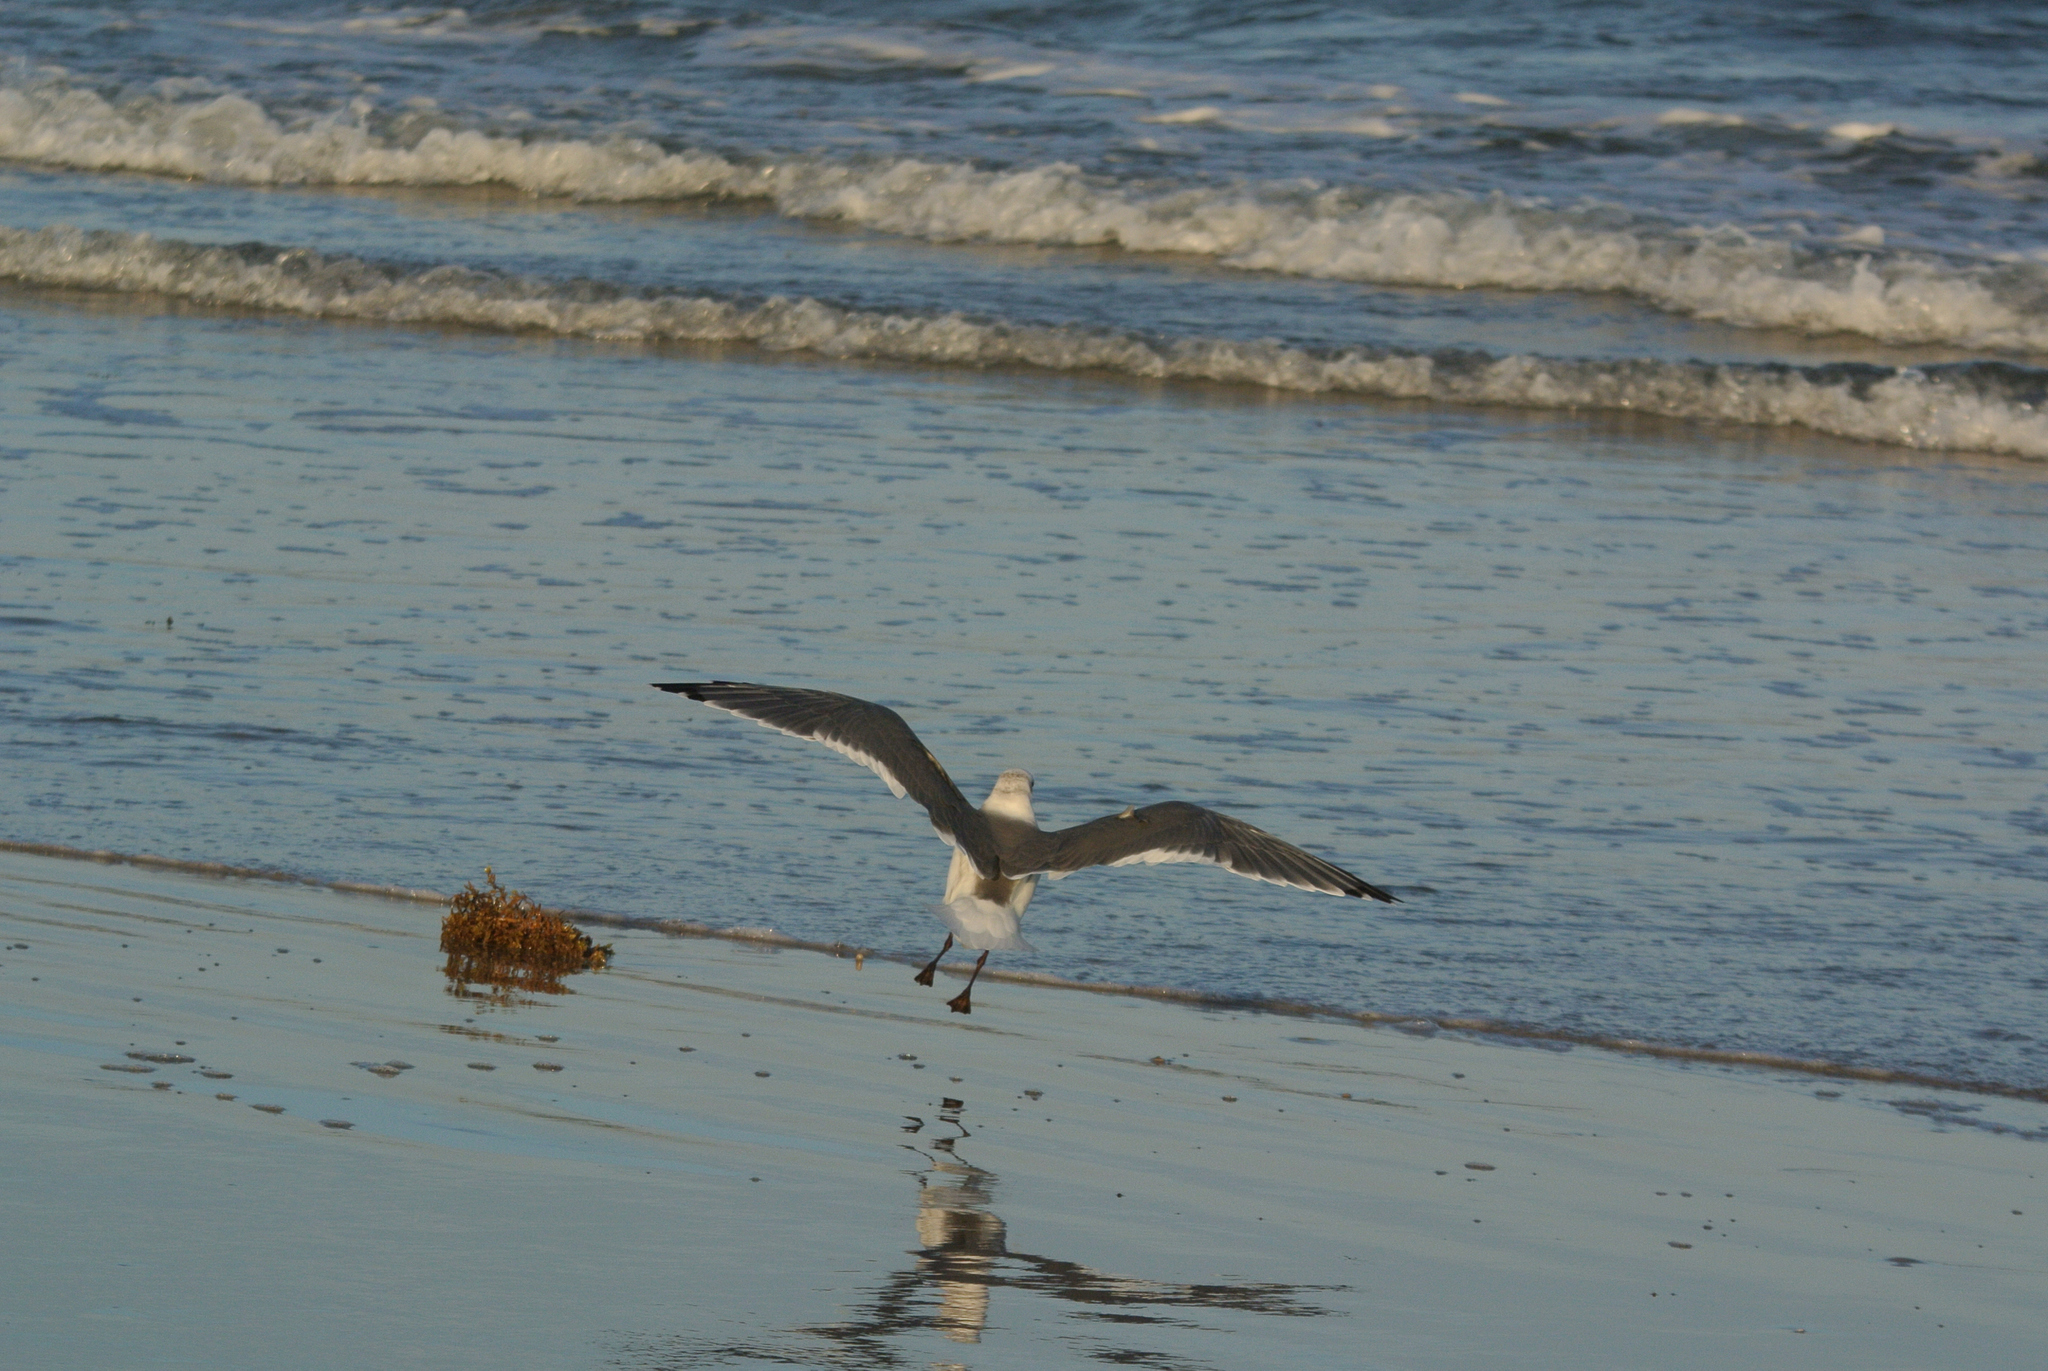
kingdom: Animalia
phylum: Chordata
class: Aves
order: Charadriiformes
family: Laridae
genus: Leucophaeus
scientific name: Leucophaeus atricilla
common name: Laughing gull
